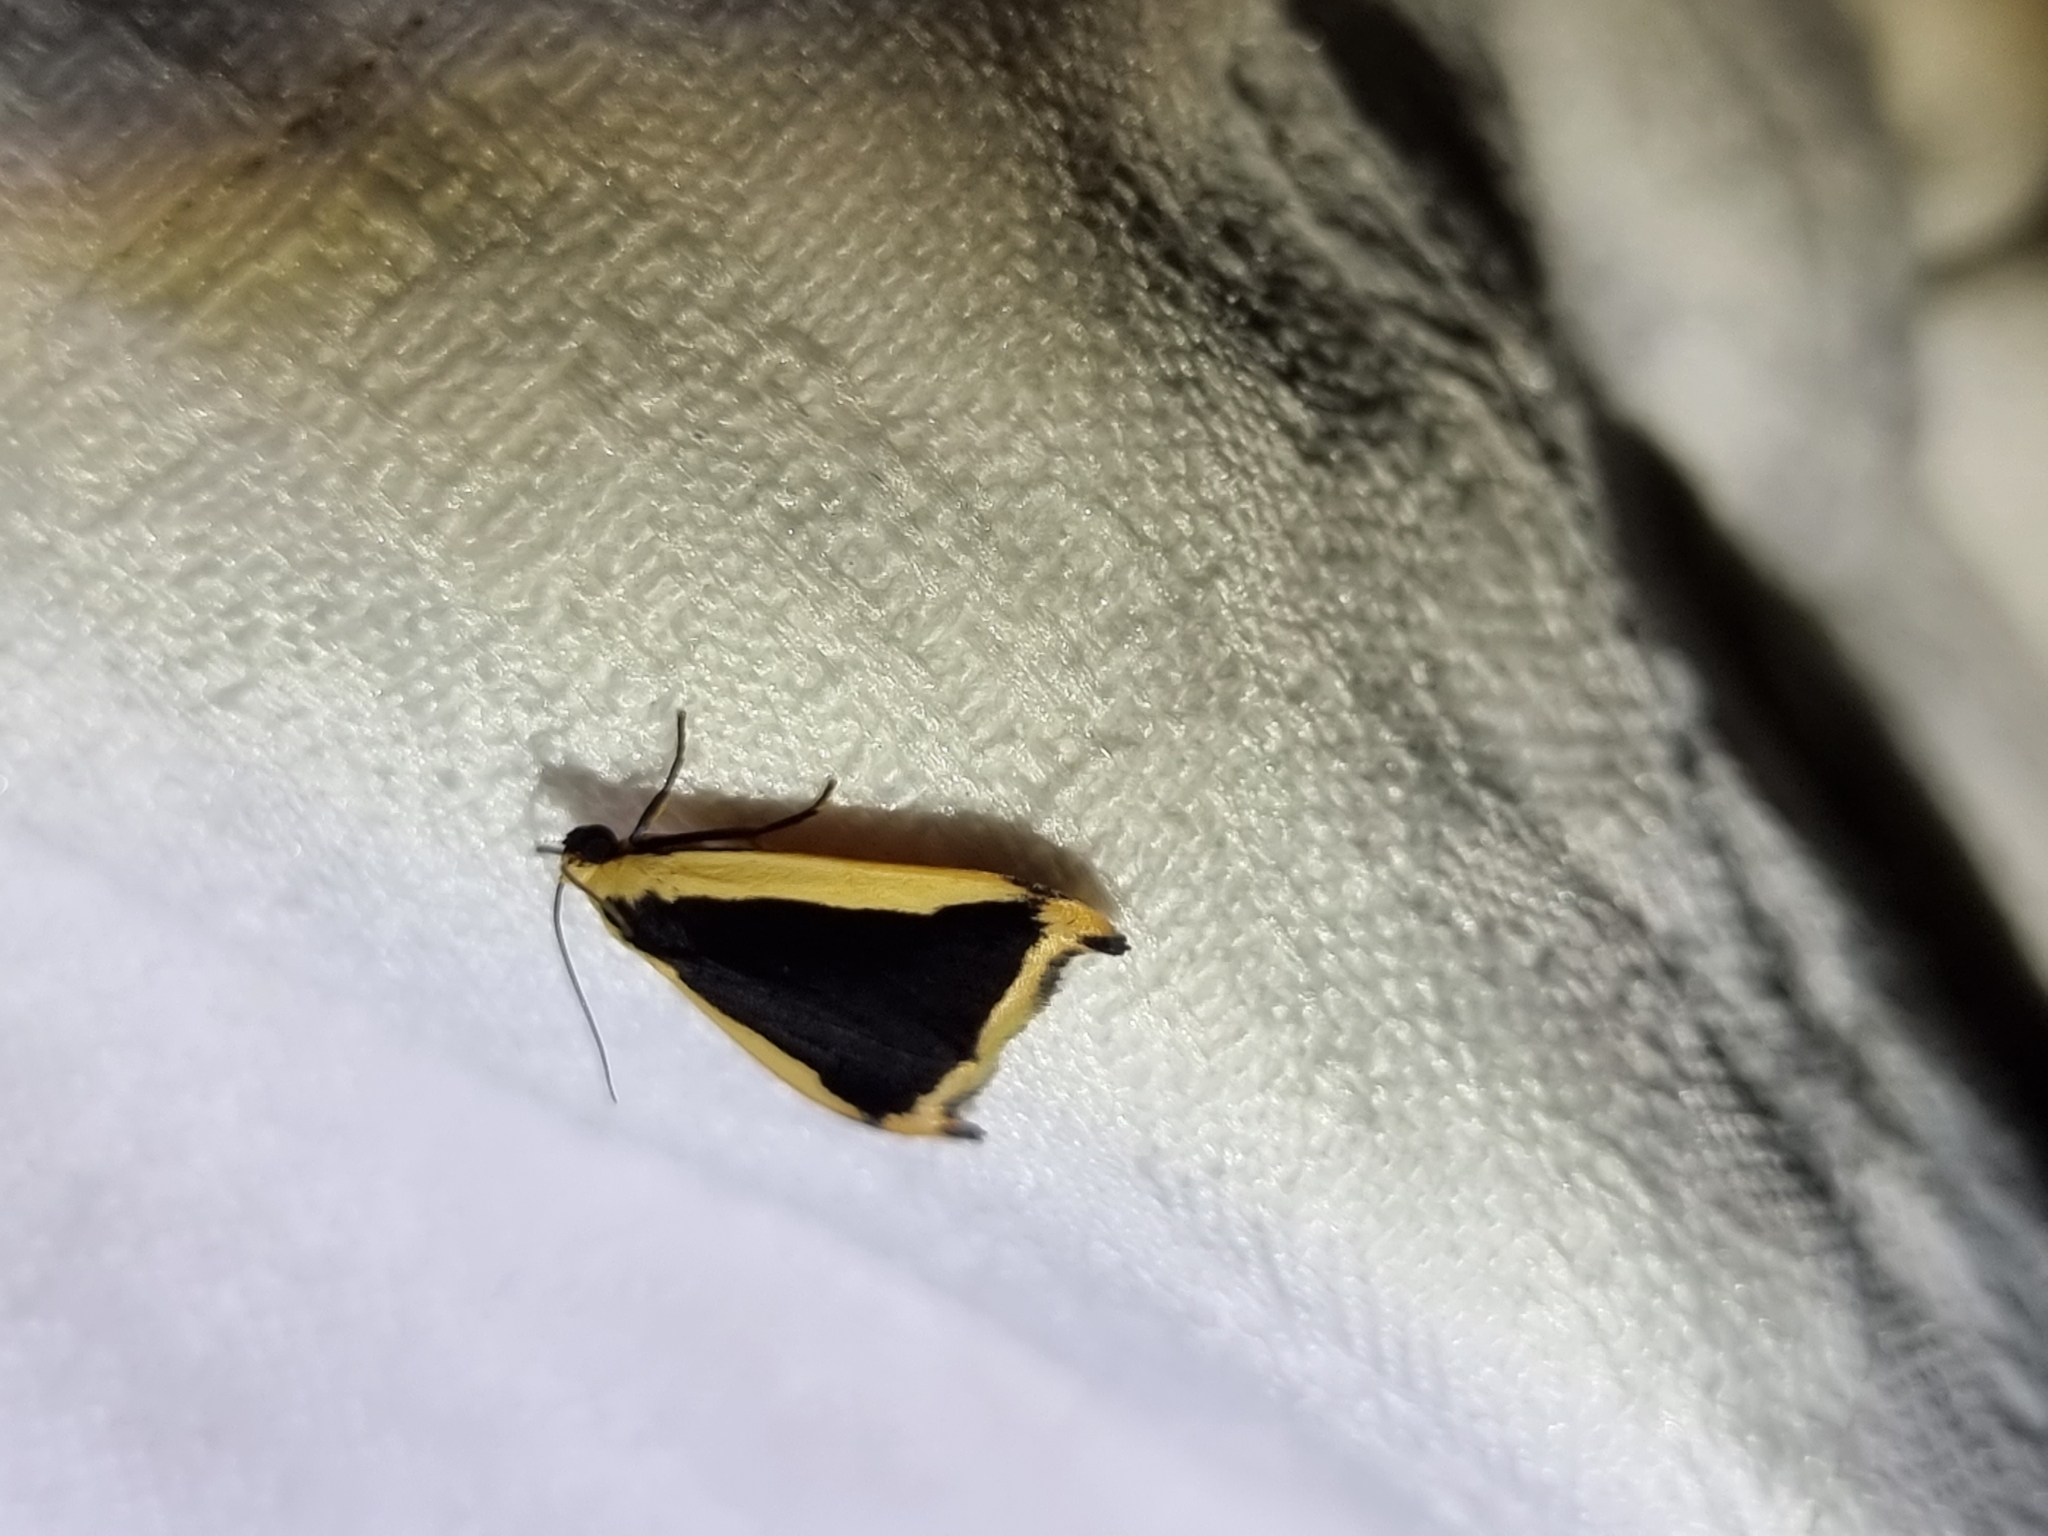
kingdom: Animalia
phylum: Arthropoda
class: Insecta
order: Lepidoptera
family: Erebidae
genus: Termessa
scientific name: Termessa conographa
